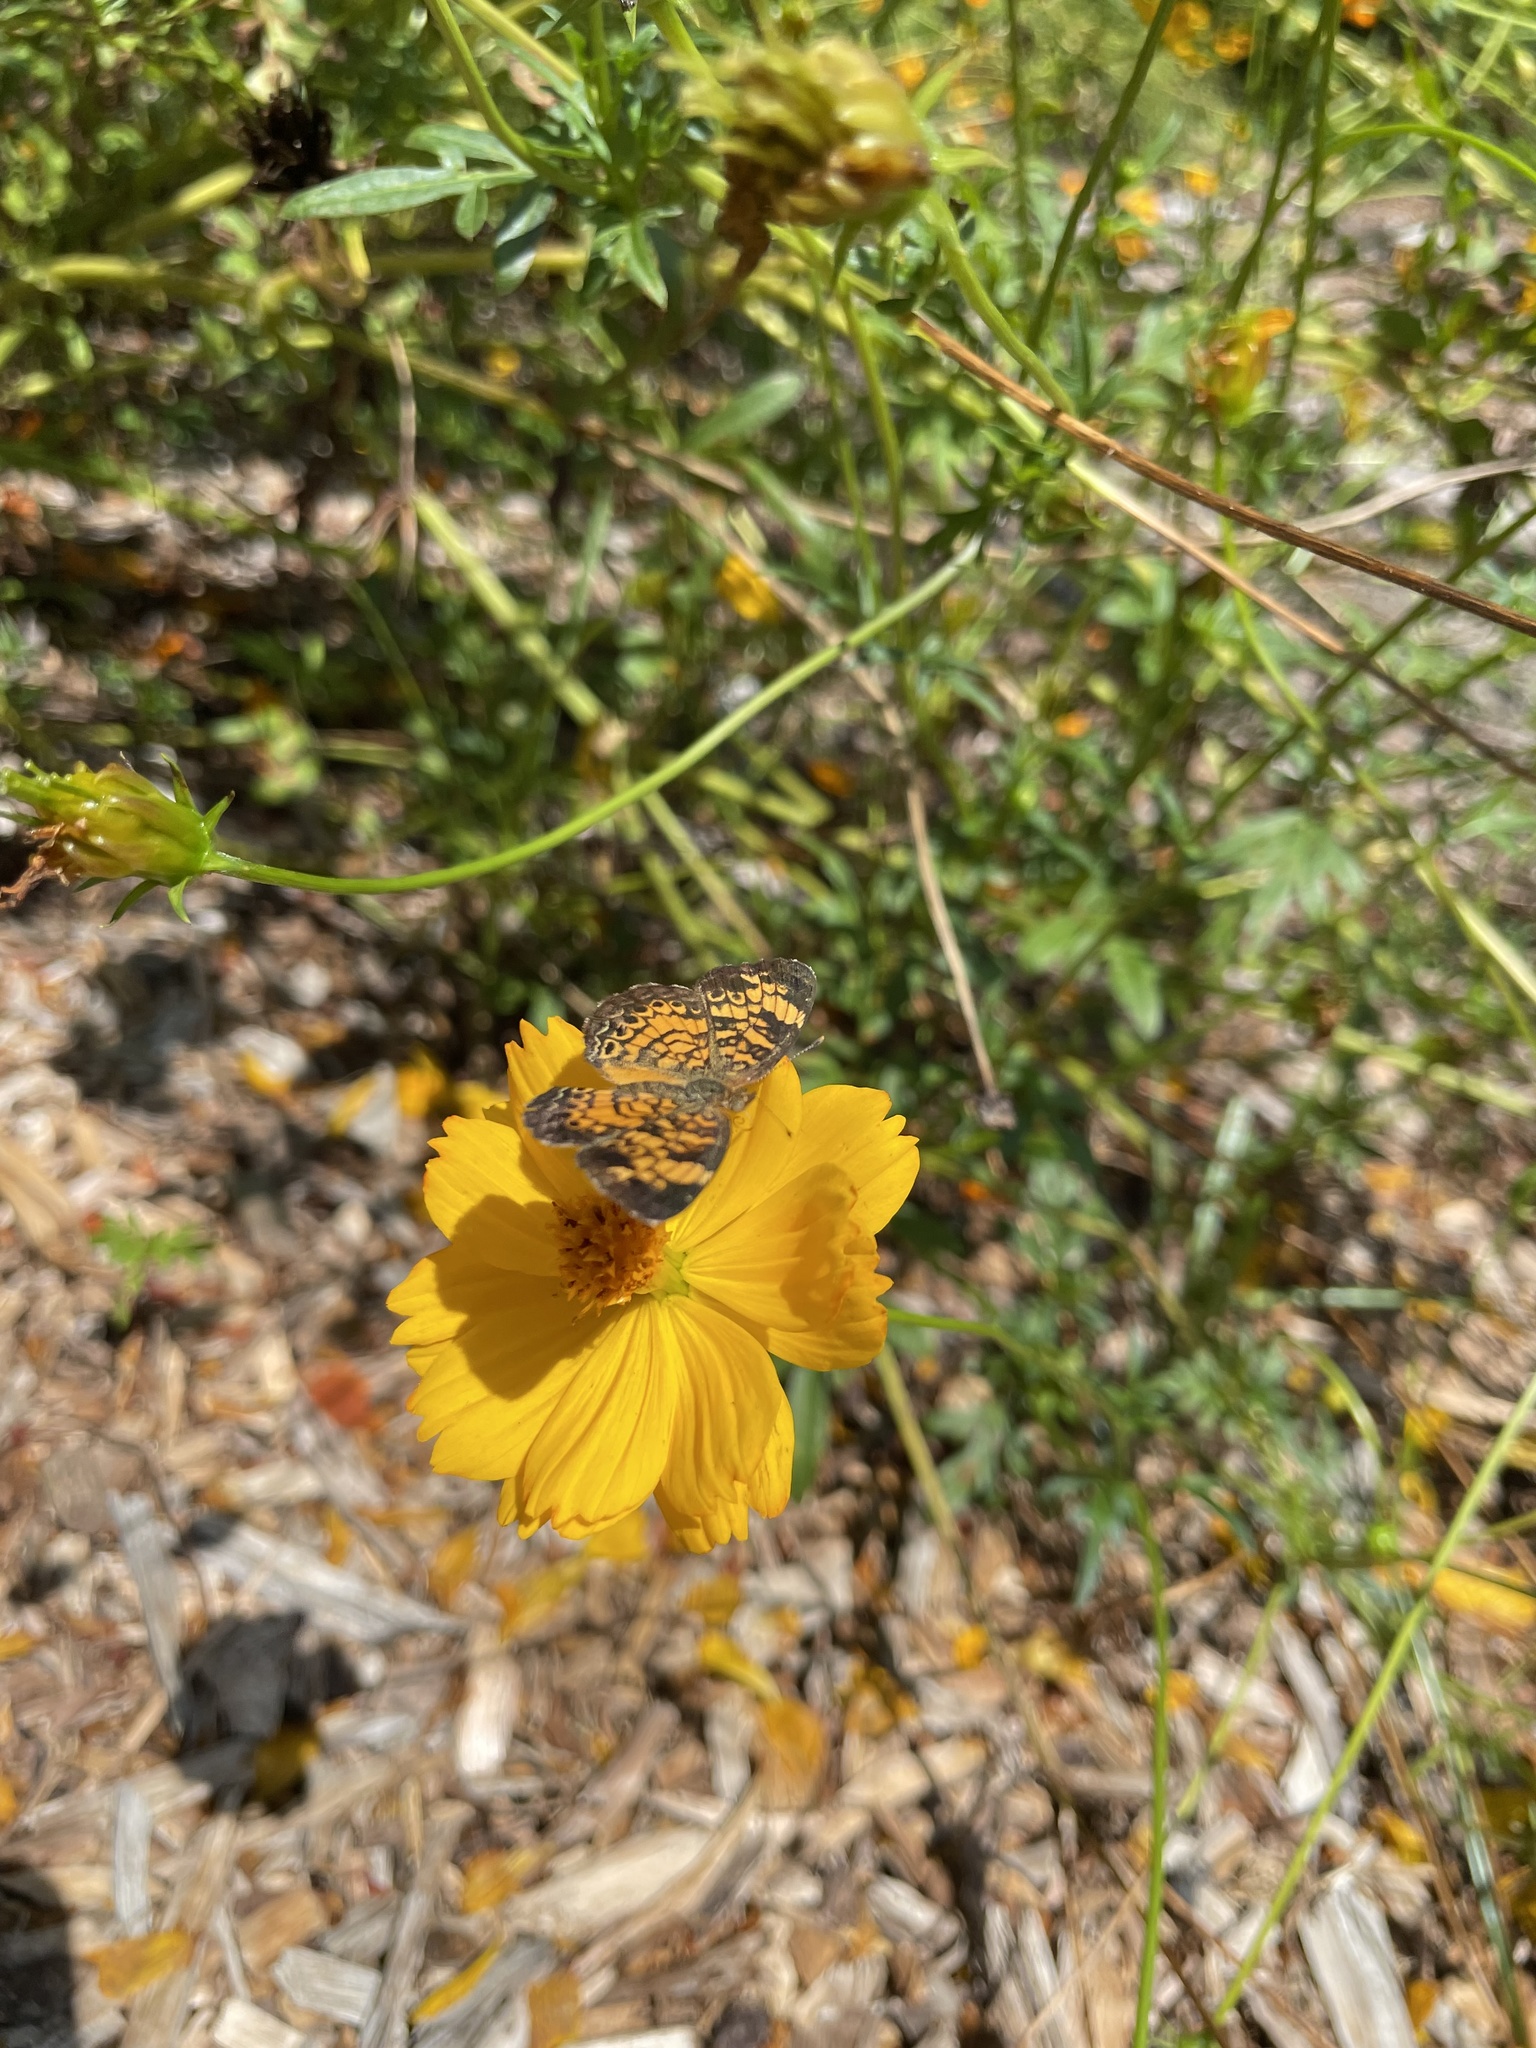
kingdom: Animalia
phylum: Arthropoda
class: Insecta
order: Lepidoptera
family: Nymphalidae
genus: Phyciodes
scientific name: Phyciodes tharos
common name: Pearl crescent
